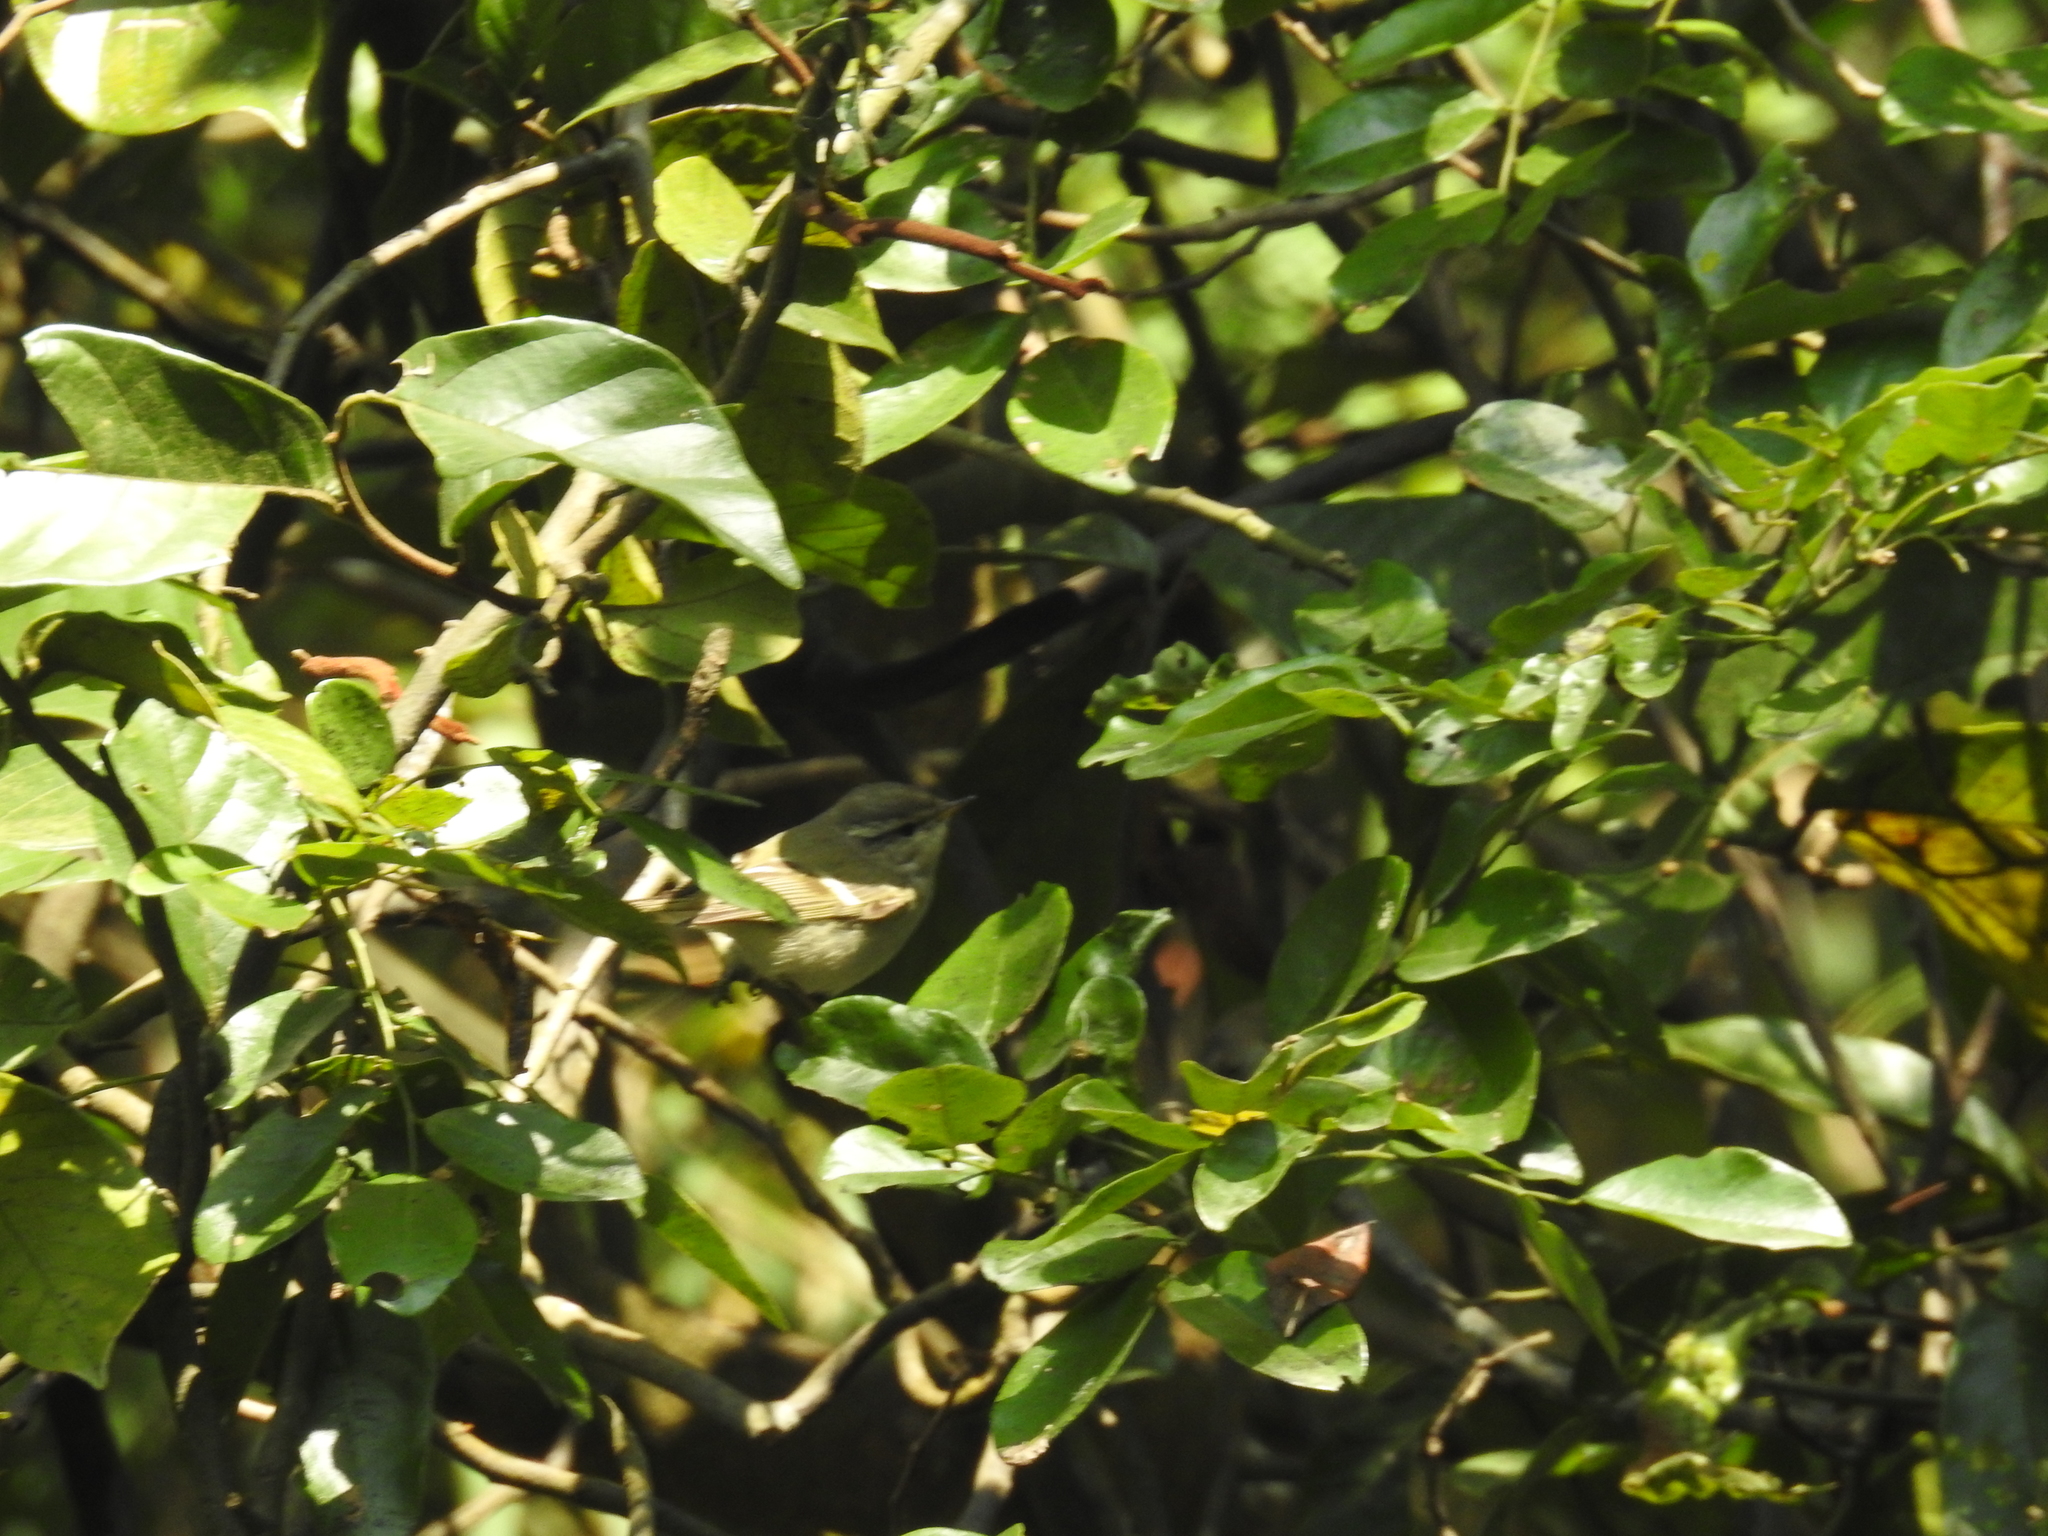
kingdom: Animalia
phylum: Chordata
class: Aves
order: Passeriformes
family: Phylloscopidae
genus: Phylloscopus
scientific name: Phylloscopus inornatus
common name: Yellow-browed warbler
